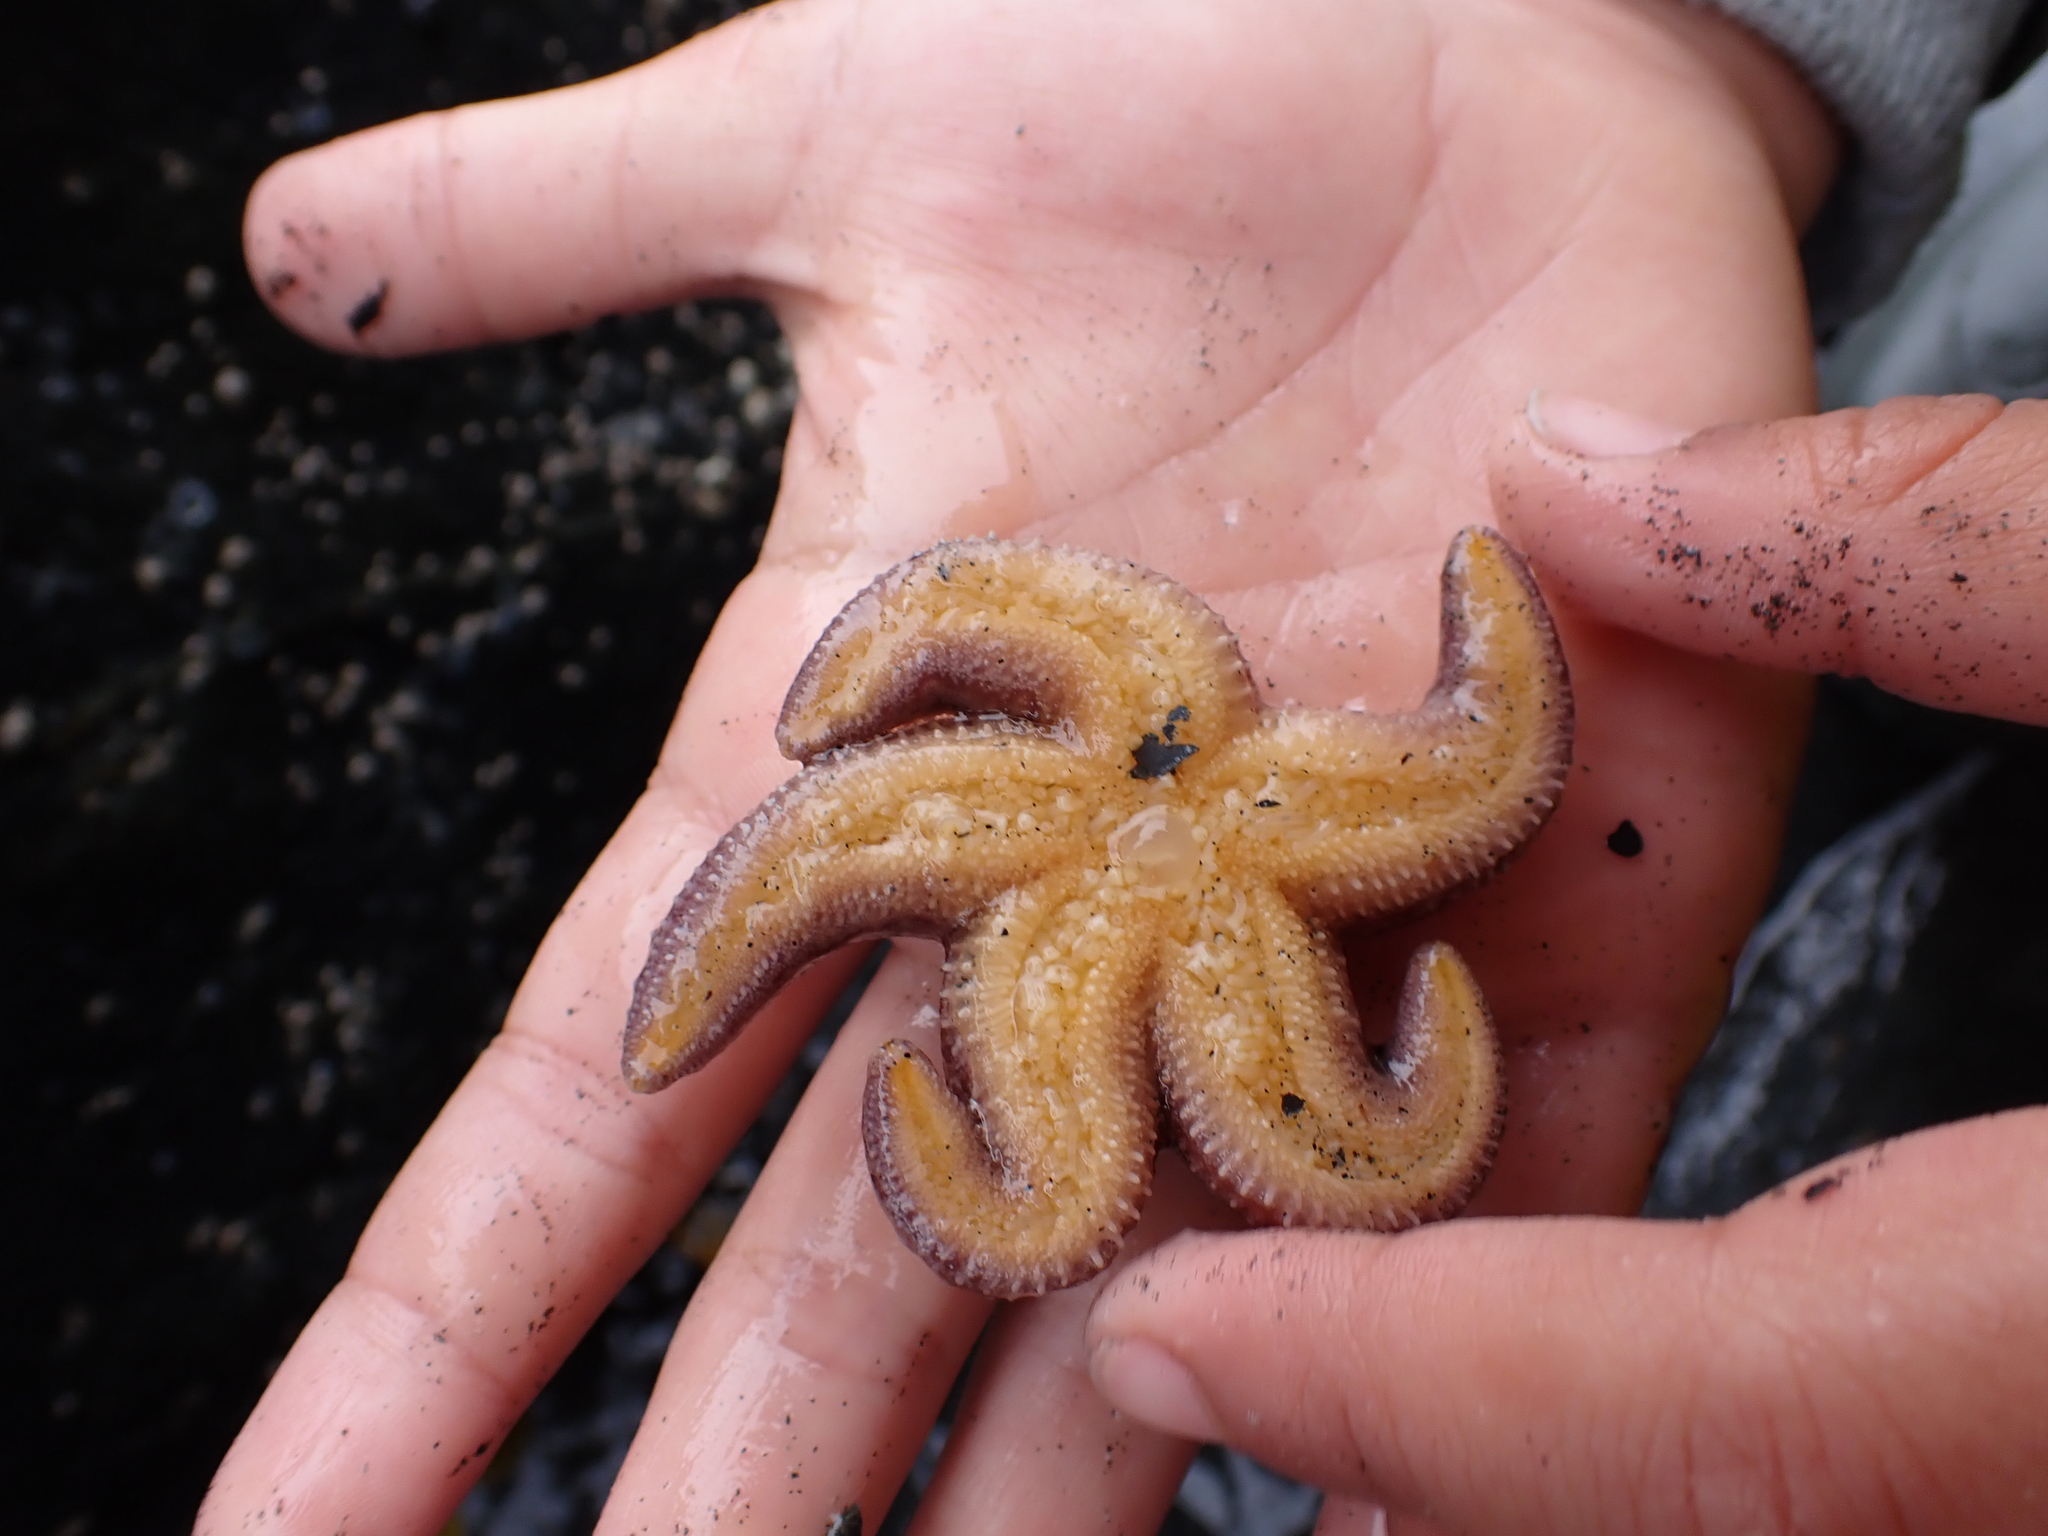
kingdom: Animalia
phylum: Echinodermata
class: Asteroidea
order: Forcipulatida
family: Asteriidae
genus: Evasterias
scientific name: Evasterias troschelii
